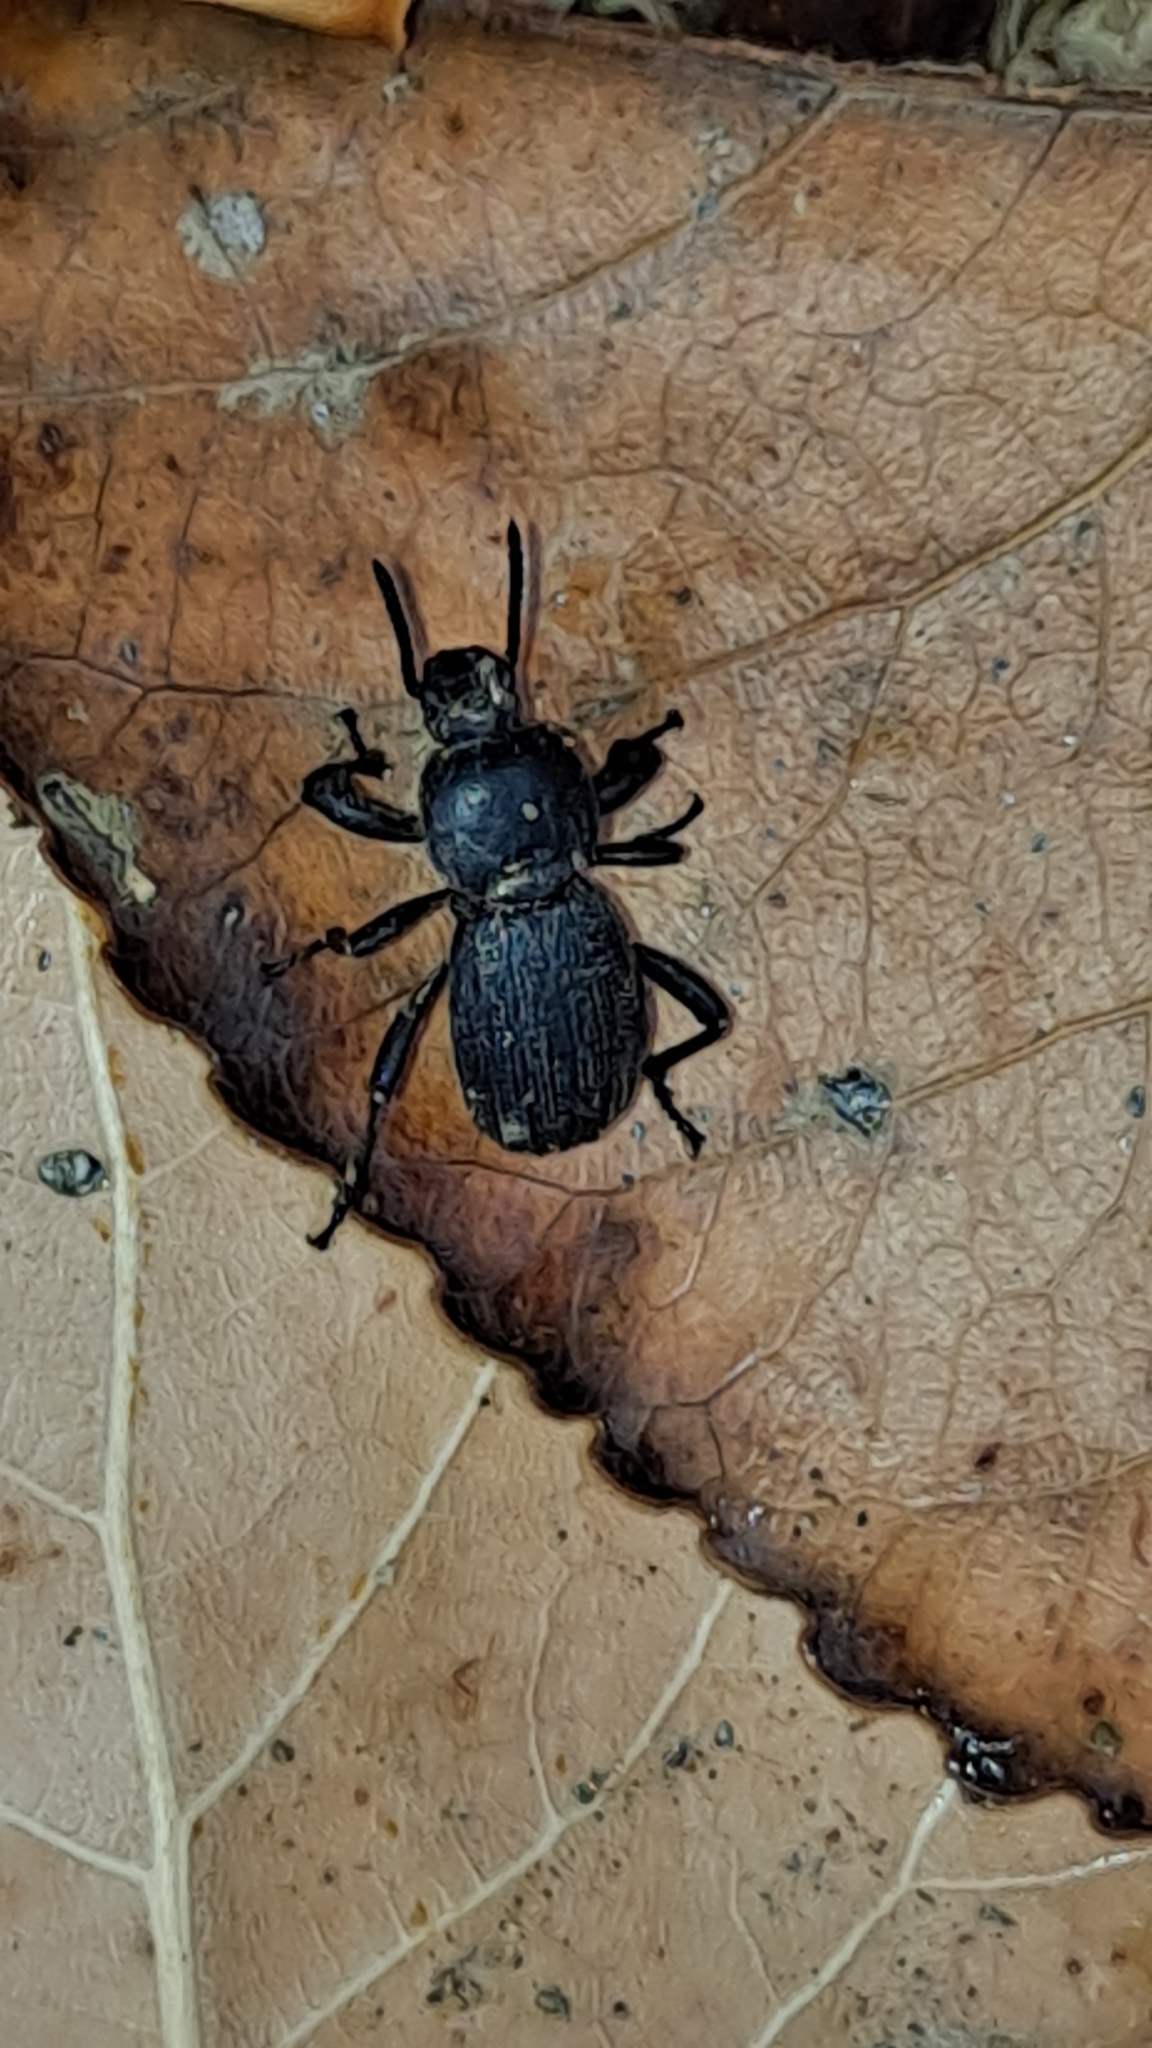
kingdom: Animalia
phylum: Arthropoda
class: Insecta
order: Coleoptera
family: Tenebrionidae
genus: Scaurus
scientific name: Scaurus uncinus
